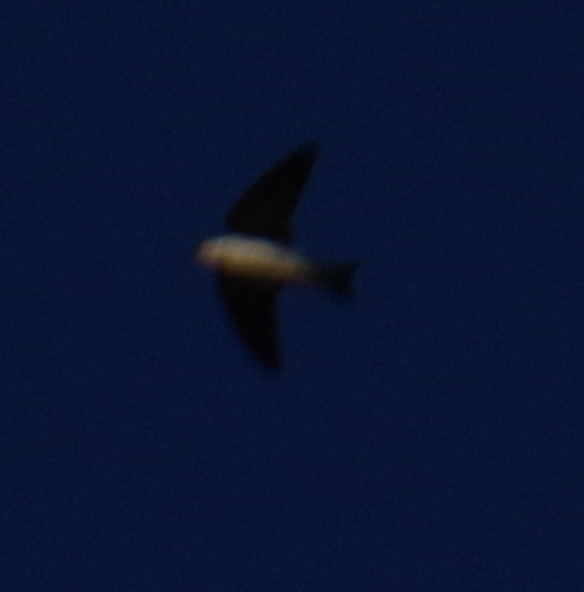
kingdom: Animalia
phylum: Chordata
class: Aves
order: Passeriformes
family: Hirundinidae
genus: Tachycineta
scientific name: Tachycineta bicolor
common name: Tree swallow
